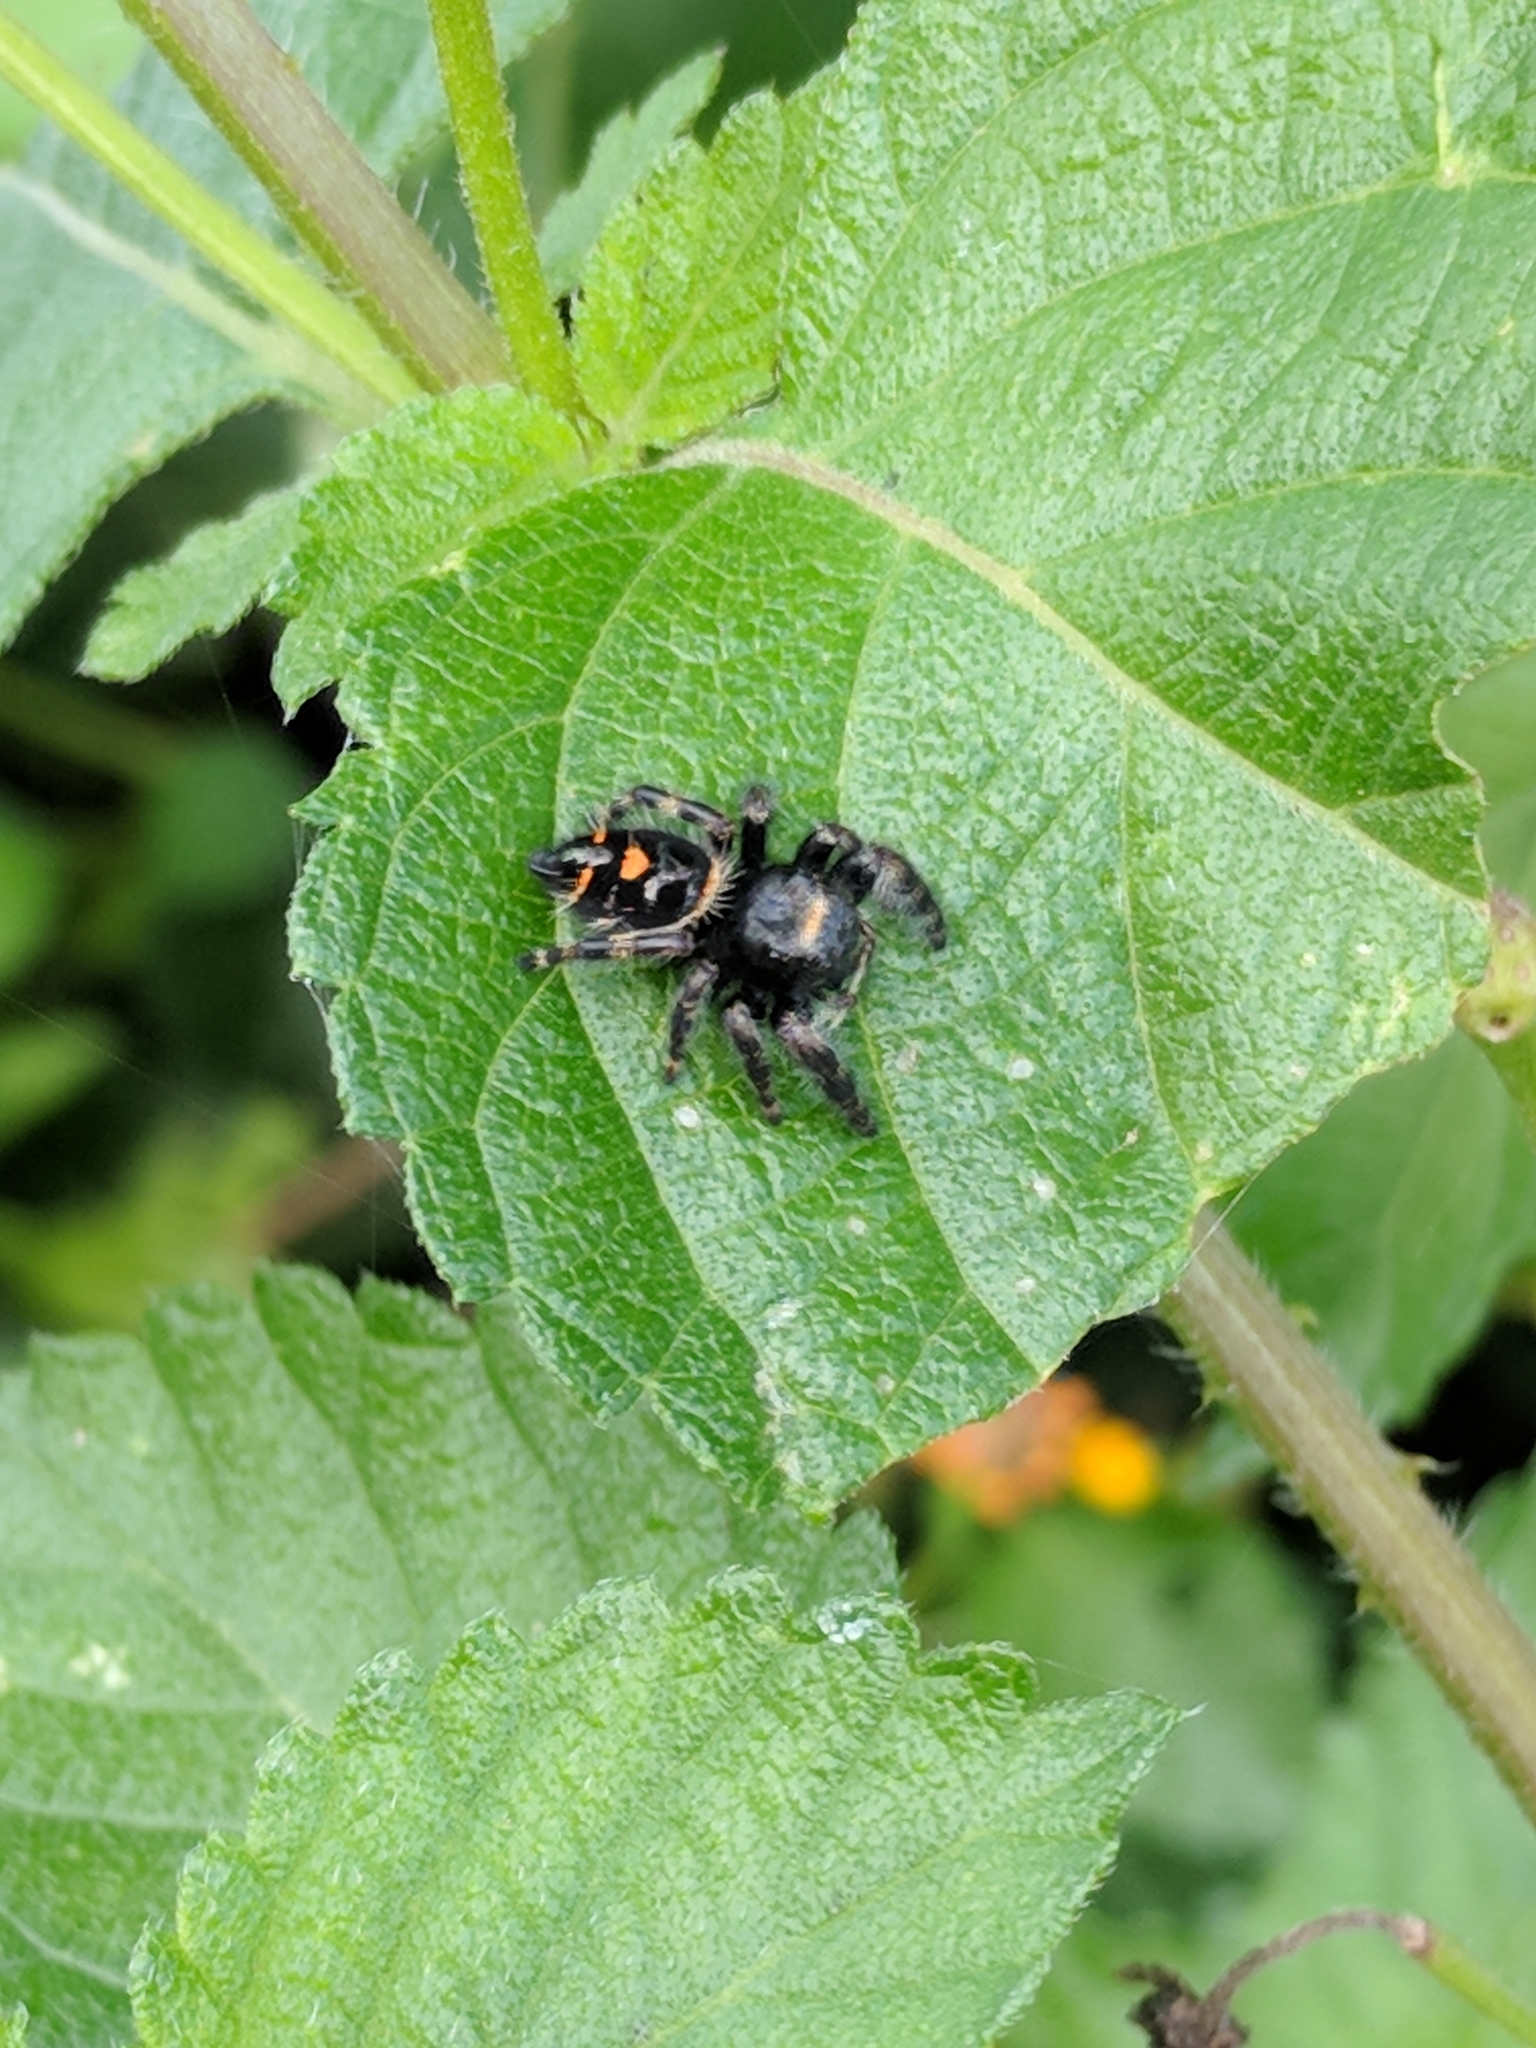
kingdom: Animalia
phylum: Arthropoda
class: Arachnida
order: Araneae
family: Salticidae
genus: Phidippus
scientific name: Phidippus audax
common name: Bold jumper
